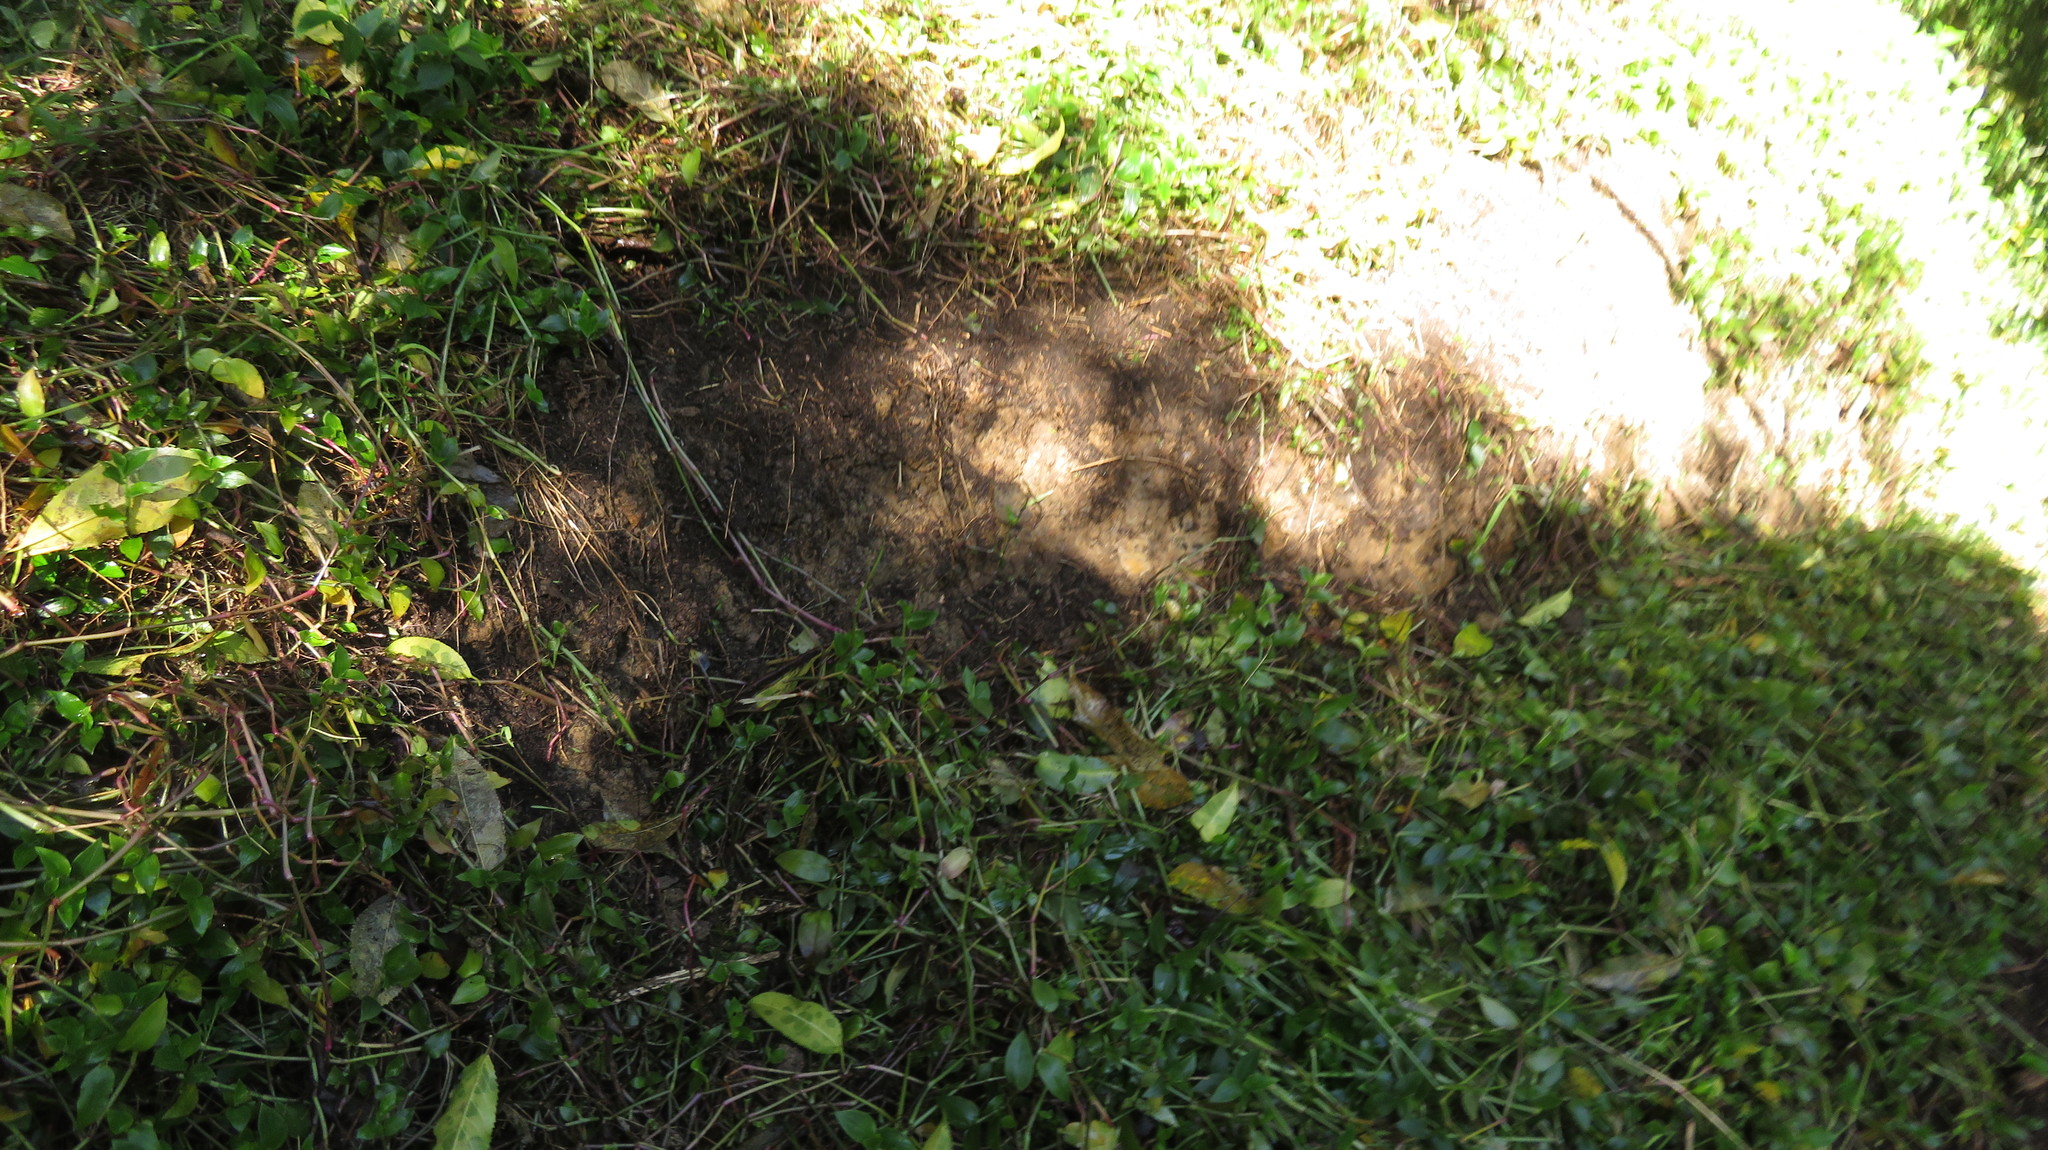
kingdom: Plantae
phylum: Tracheophyta
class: Liliopsida
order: Commelinales
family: Commelinaceae
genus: Tradescantia
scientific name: Tradescantia fluminensis
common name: Wandering-jew
